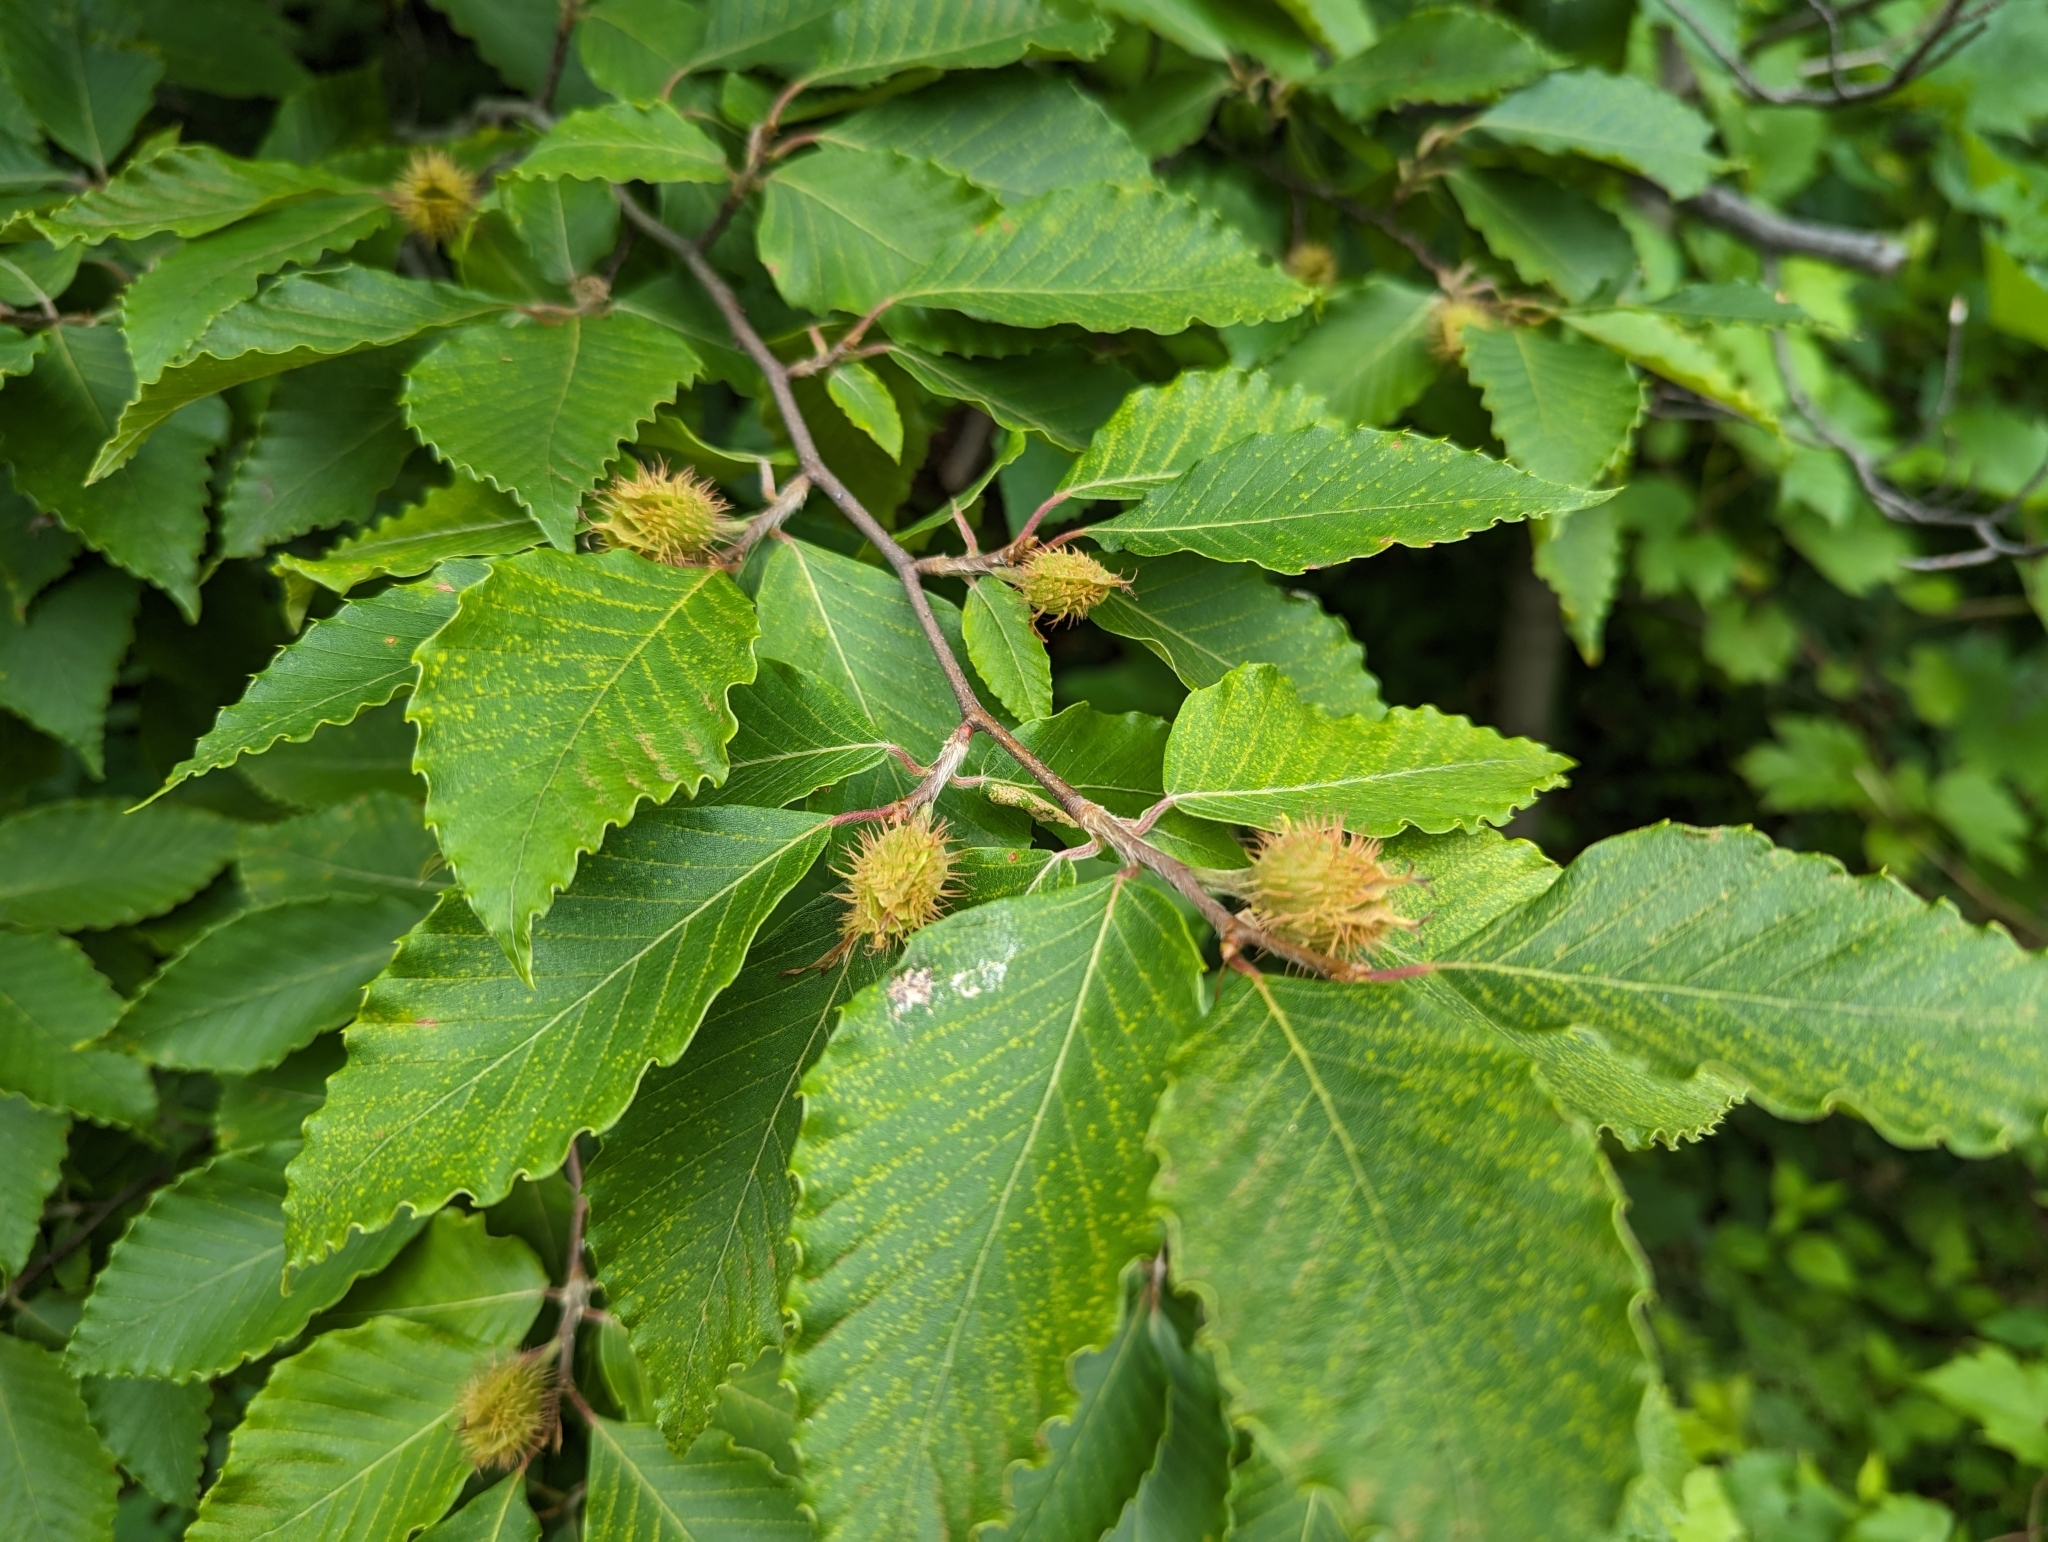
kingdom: Plantae
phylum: Tracheophyta
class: Magnoliopsida
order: Fagales
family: Fagaceae
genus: Fagus
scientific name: Fagus grandifolia
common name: American beech
